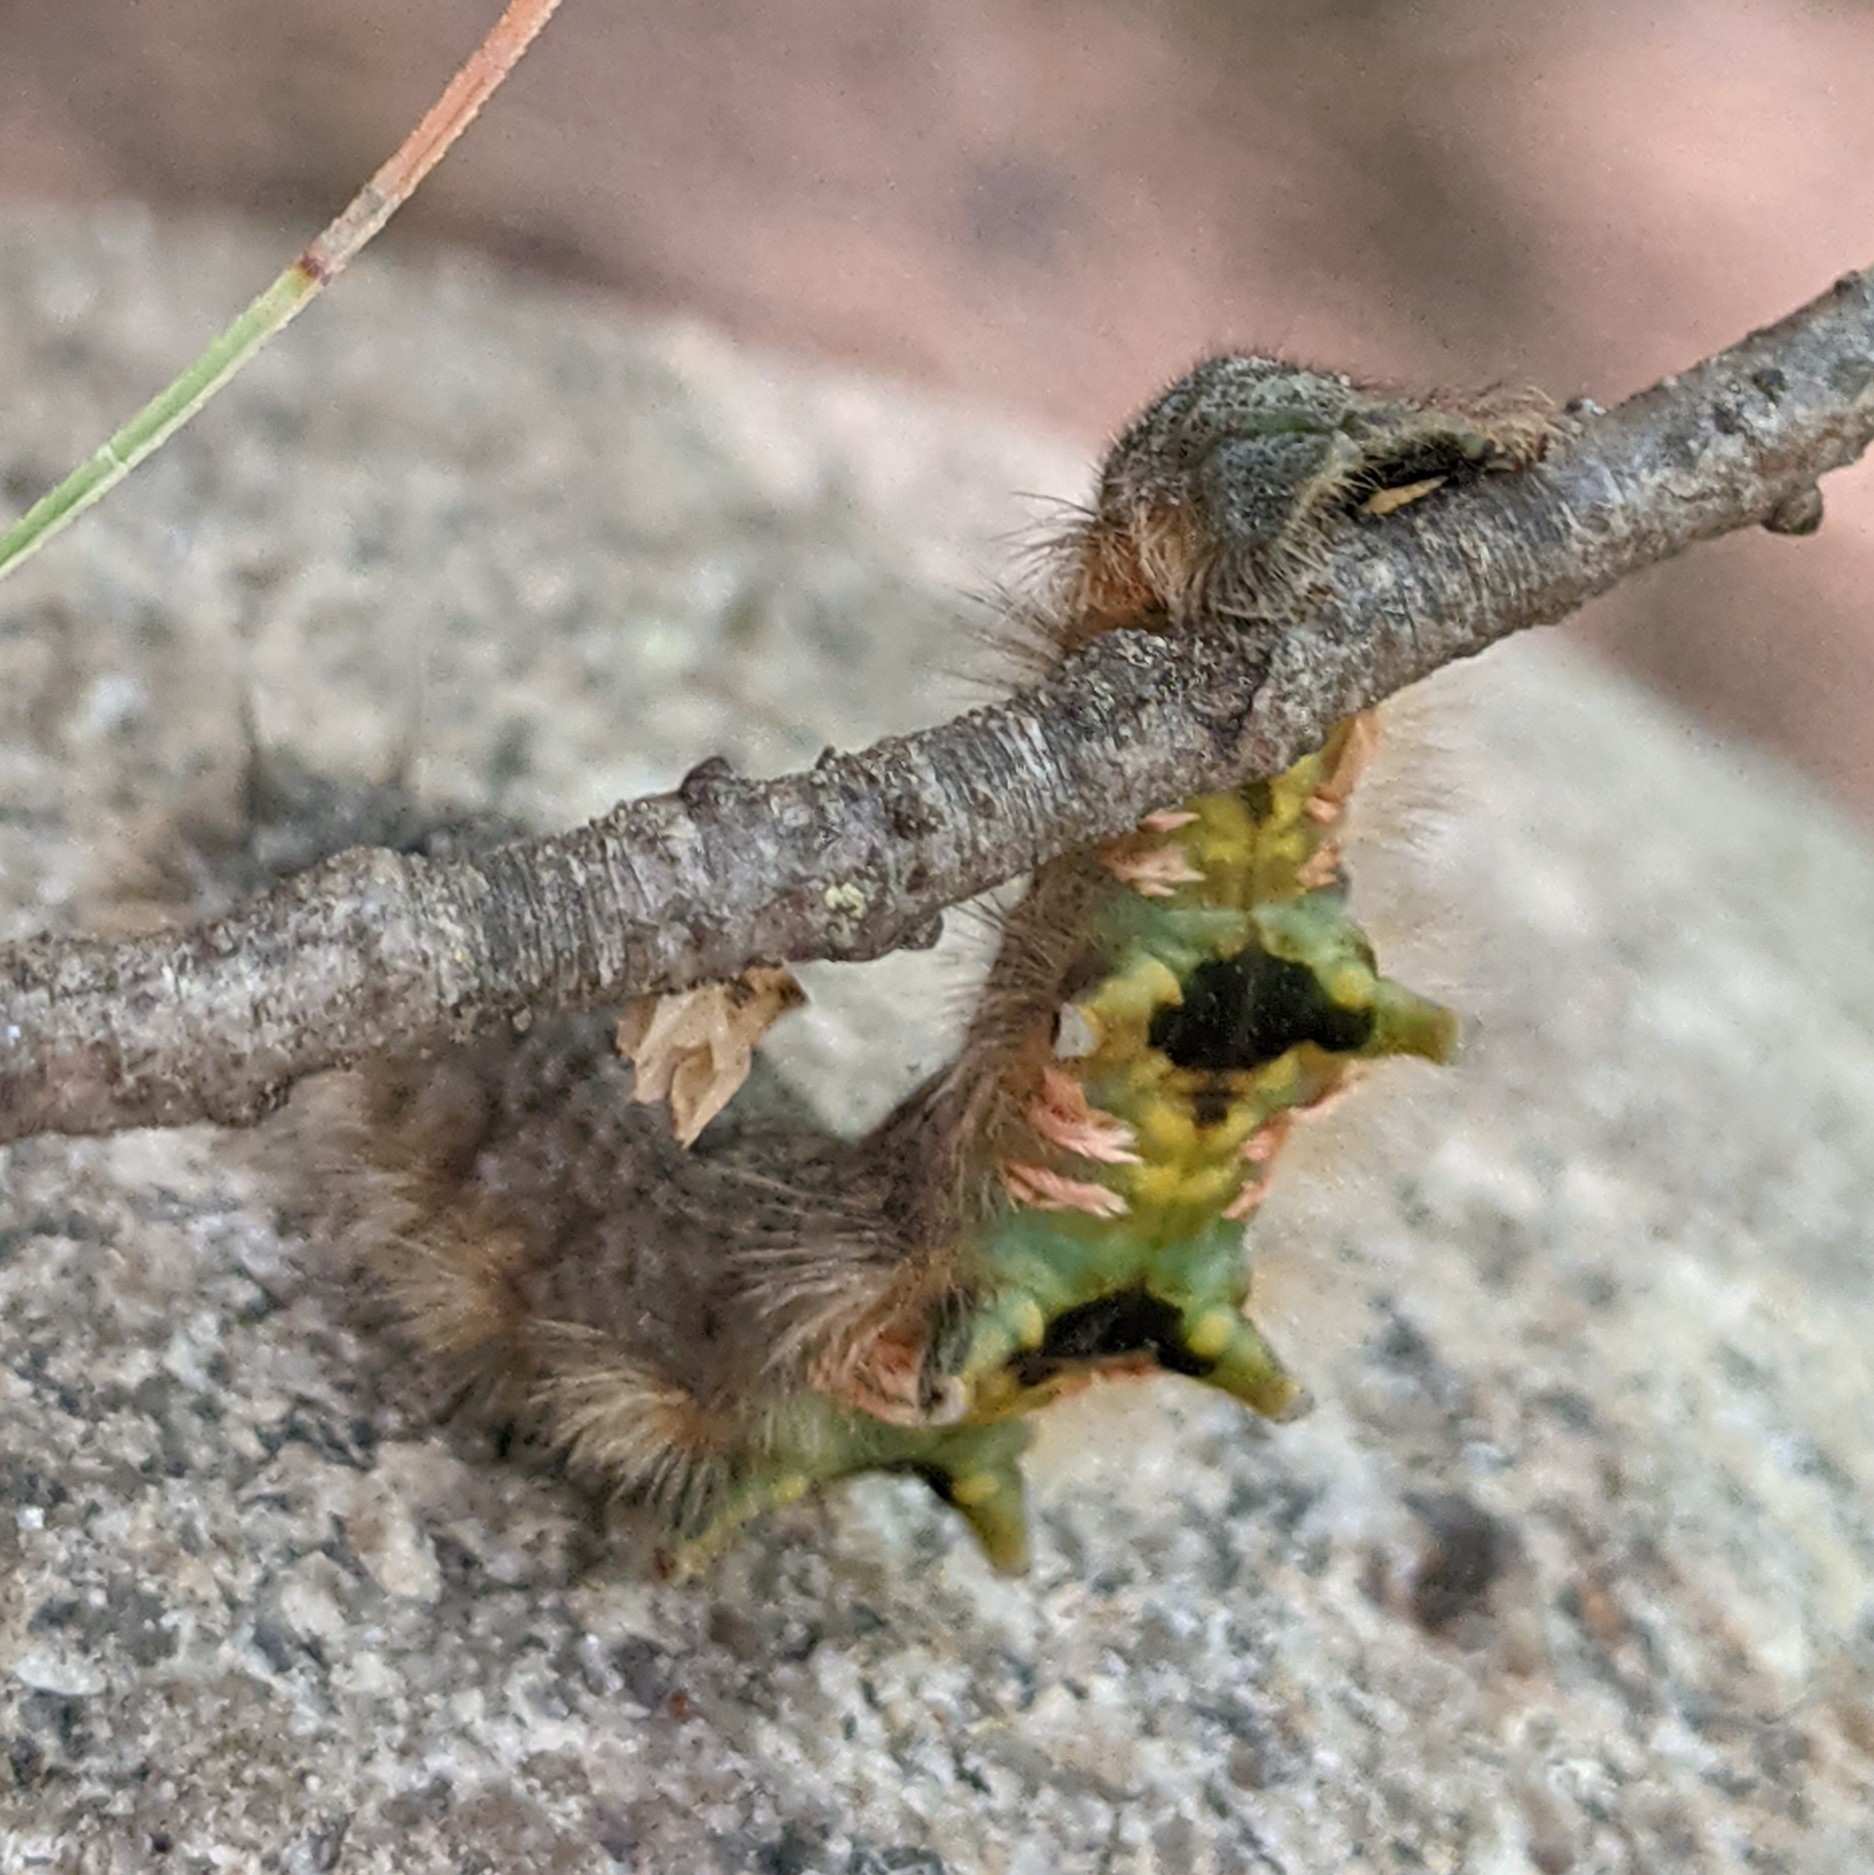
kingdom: Animalia
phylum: Arthropoda
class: Insecta
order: Lepidoptera
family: Lasiocampidae
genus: Phyllodesma
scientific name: Phyllodesma americana
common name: American lappet moth
